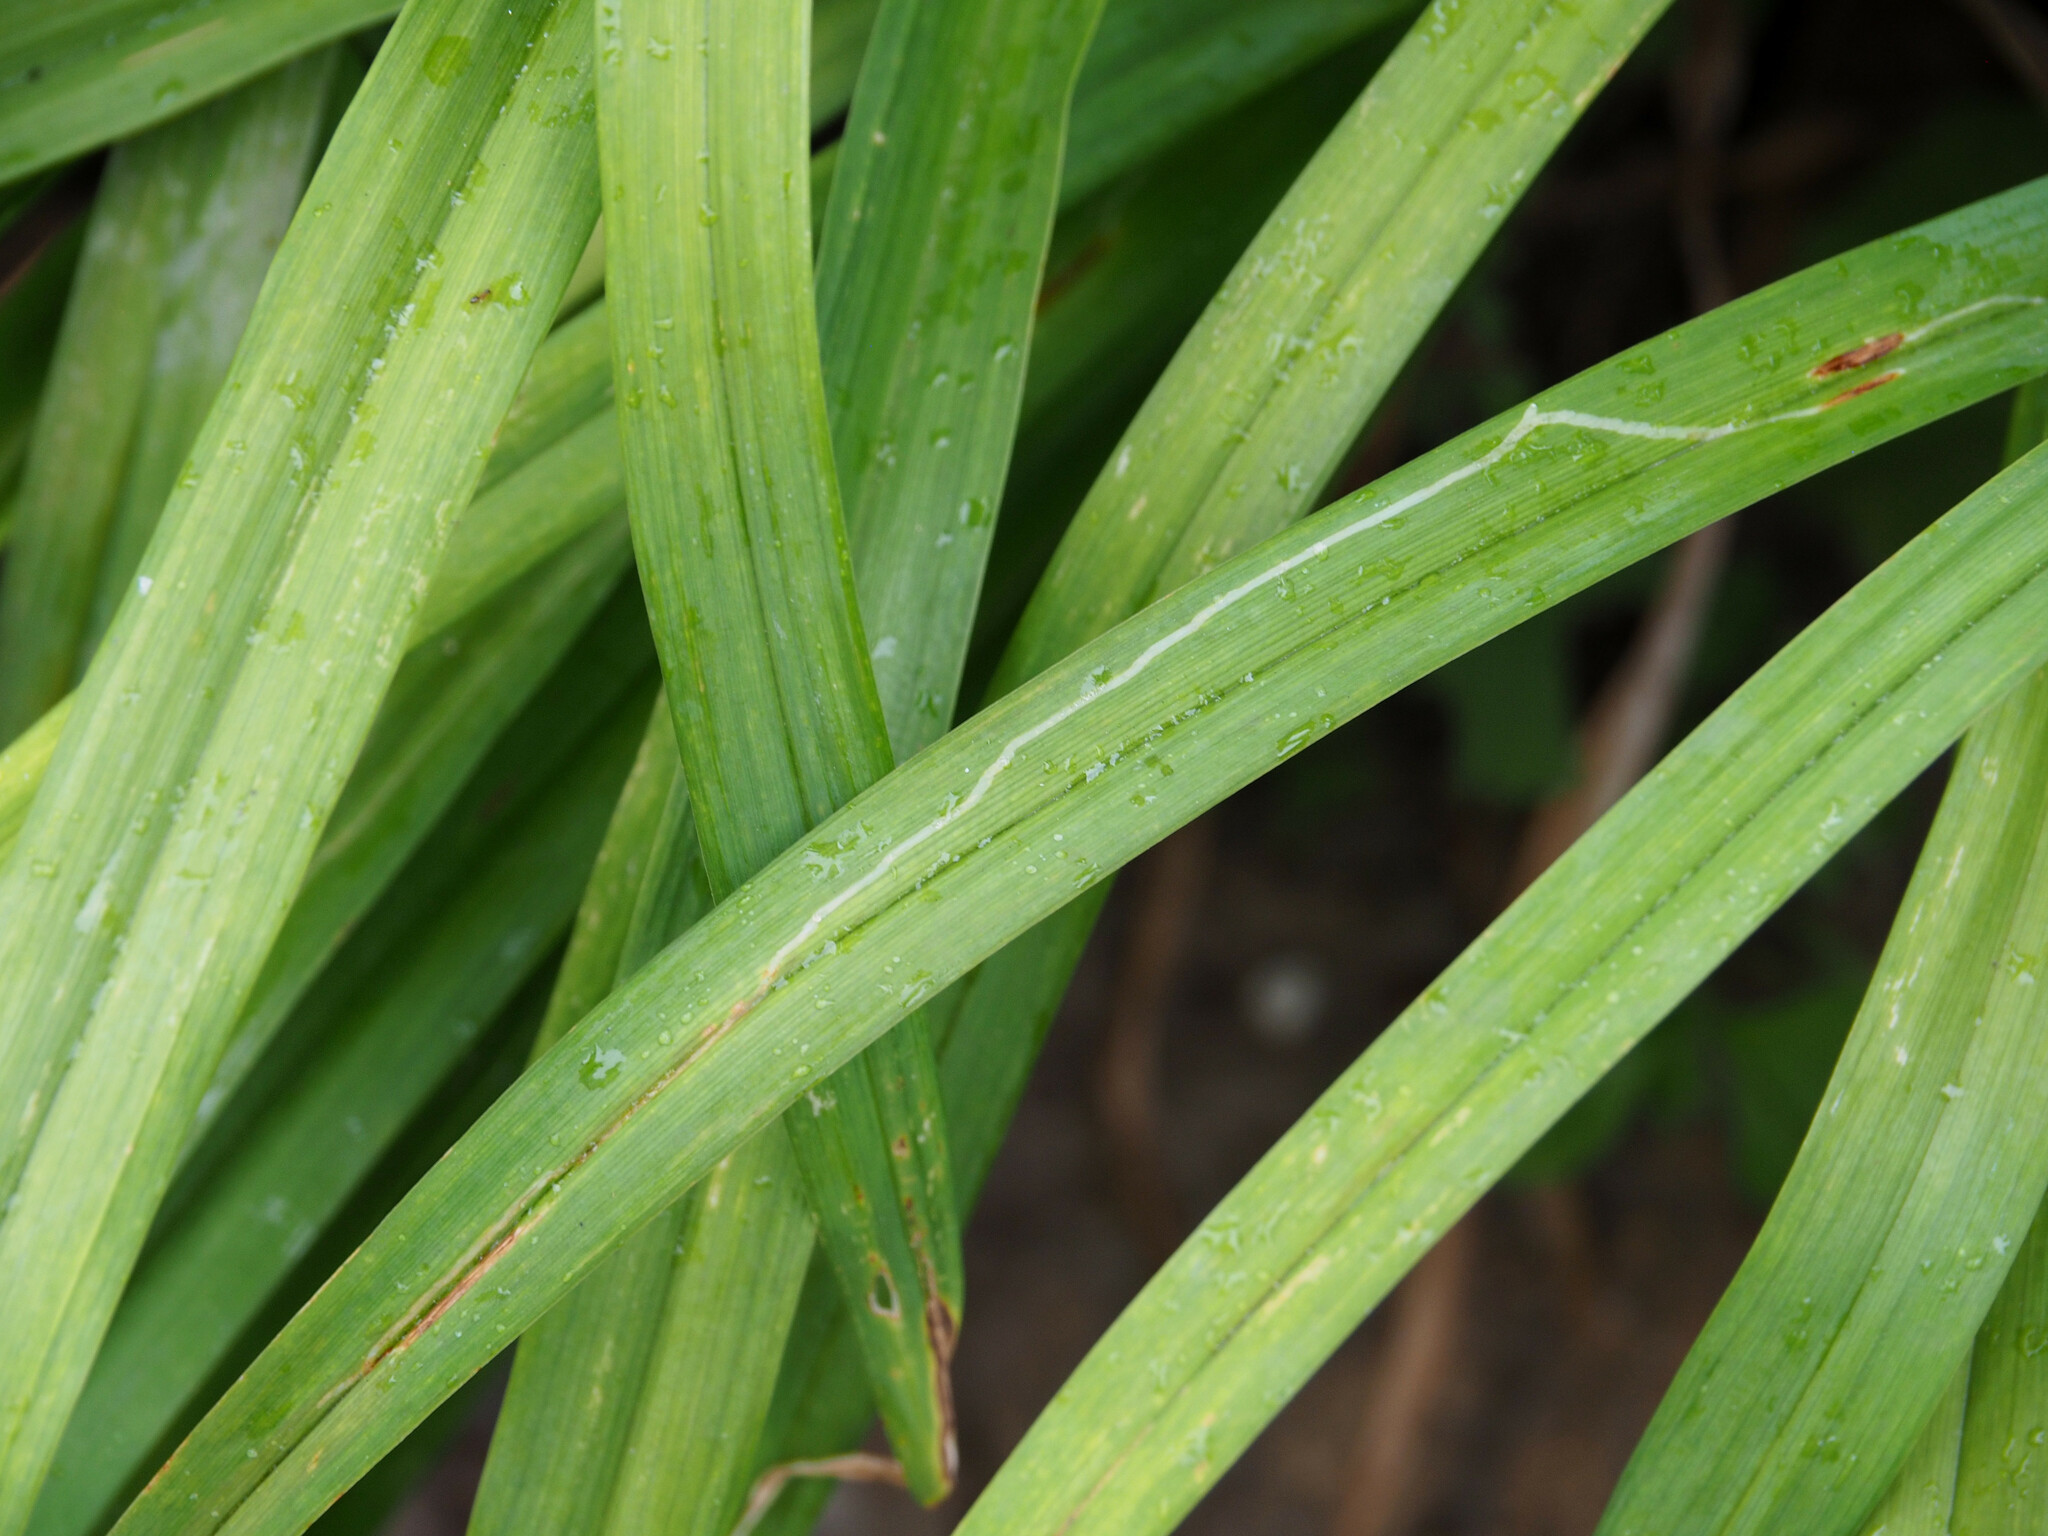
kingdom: Animalia
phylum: Arthropoda
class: Insecta
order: Diptera
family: Agromyzidae
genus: Ophiomyia
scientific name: Ophiomyia kwansonis
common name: Daylily leafminer
